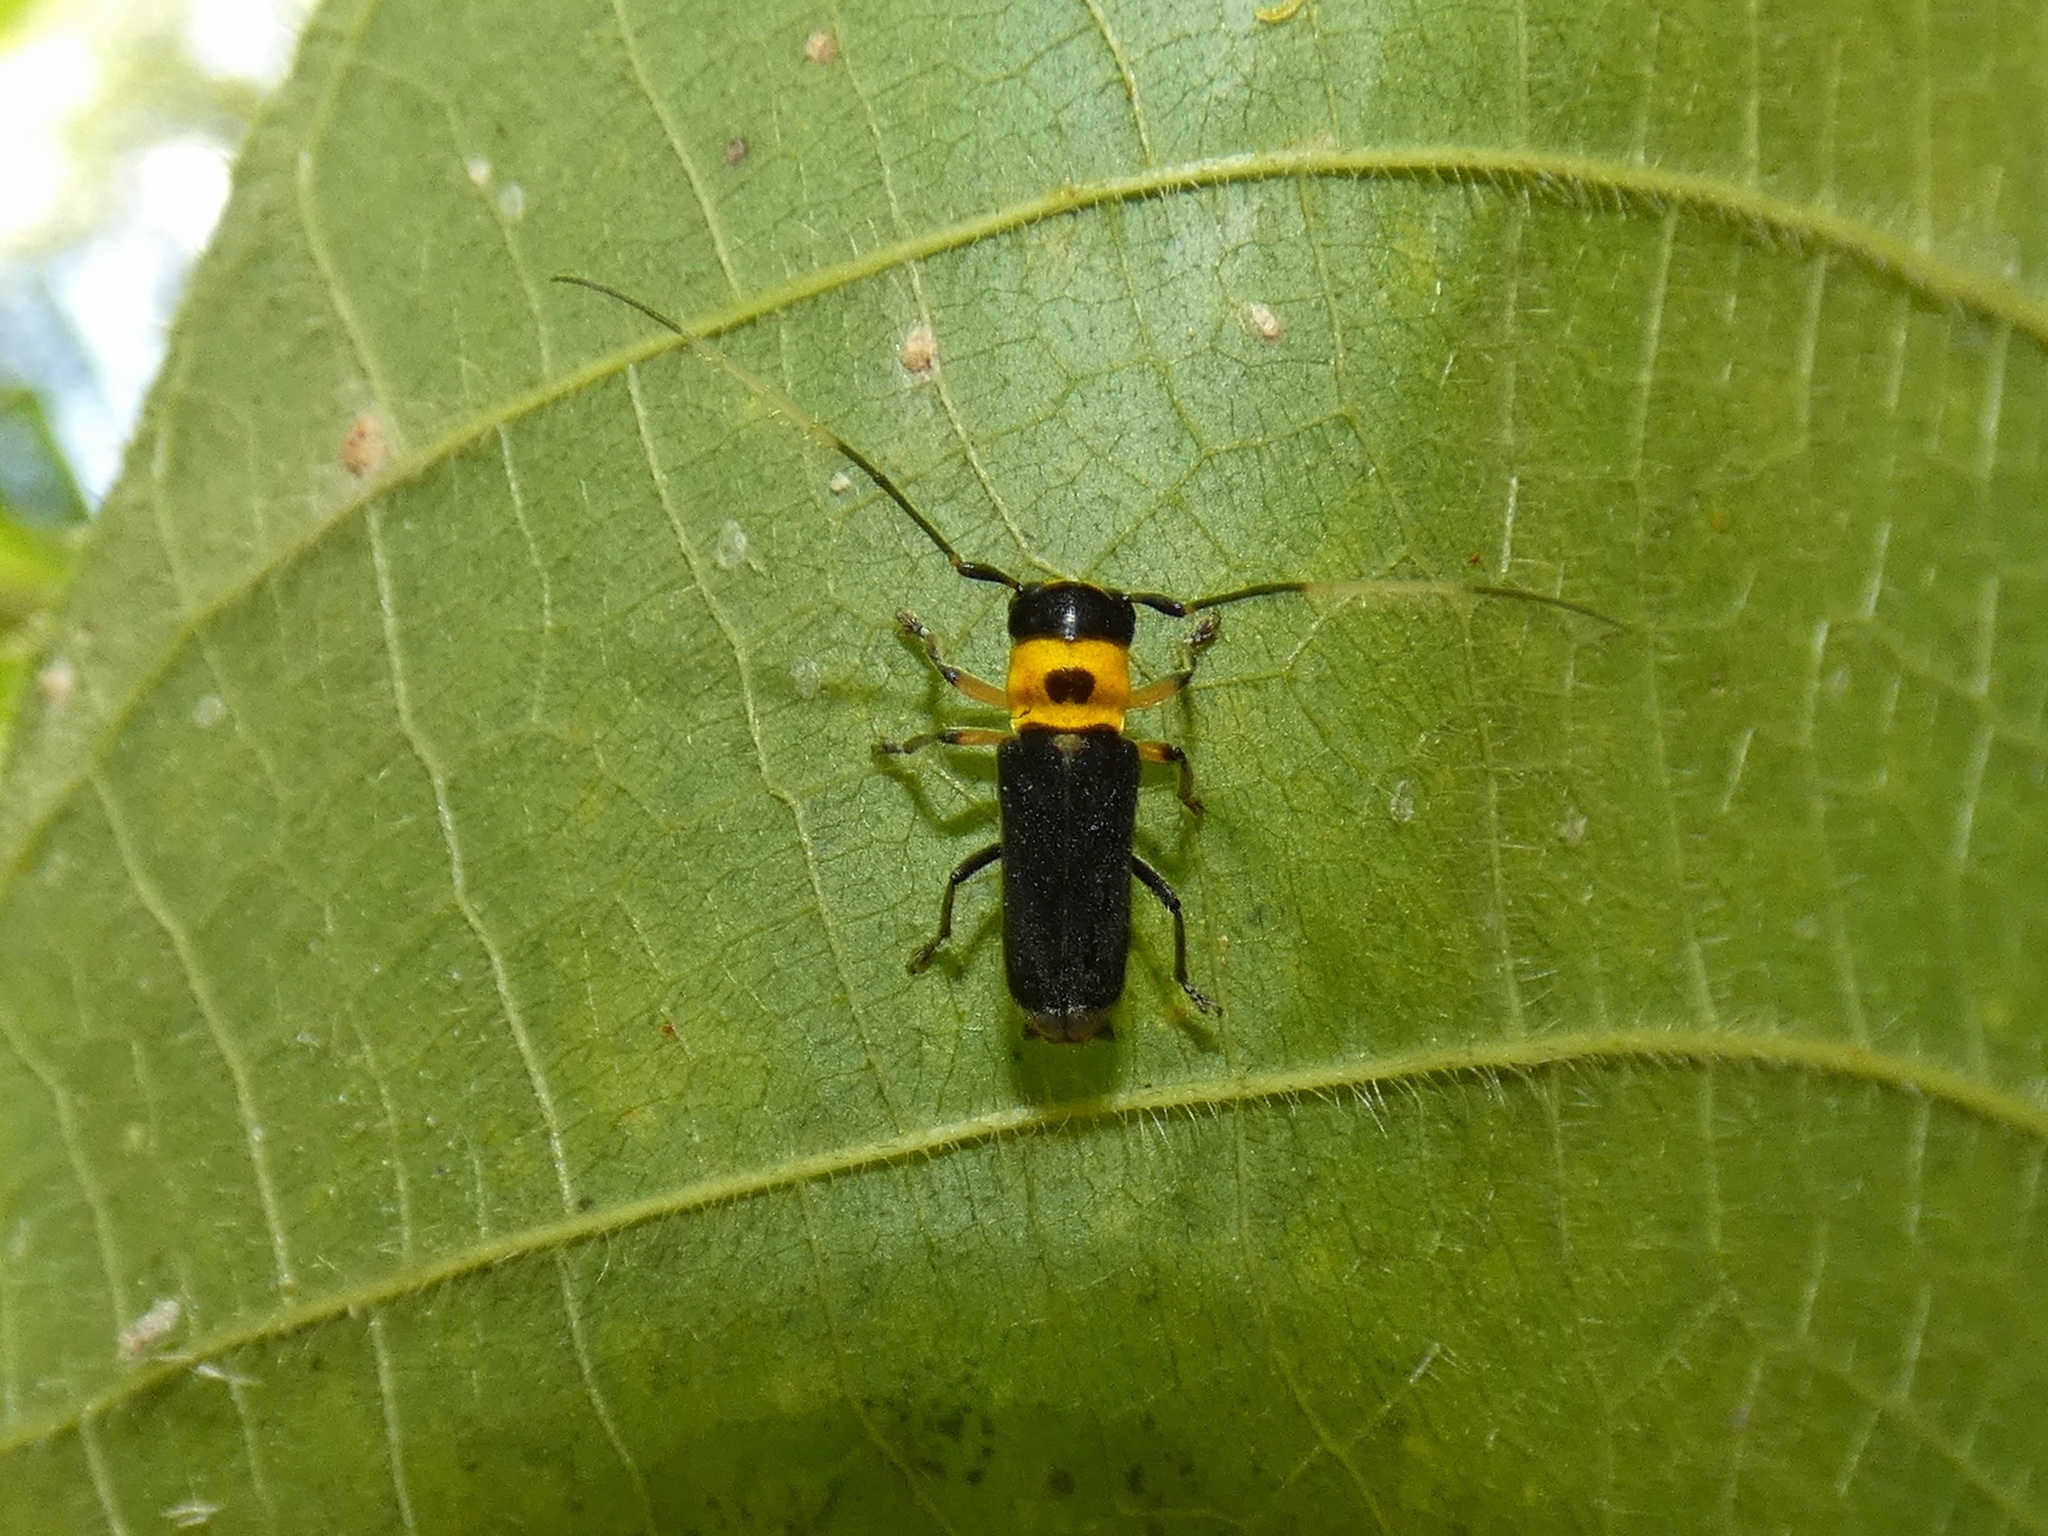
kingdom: Animalia
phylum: Arthropoda
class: Insecta
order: Coleoptera
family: Cerambycidae
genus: Cephalodina
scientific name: Cephalodina capito
